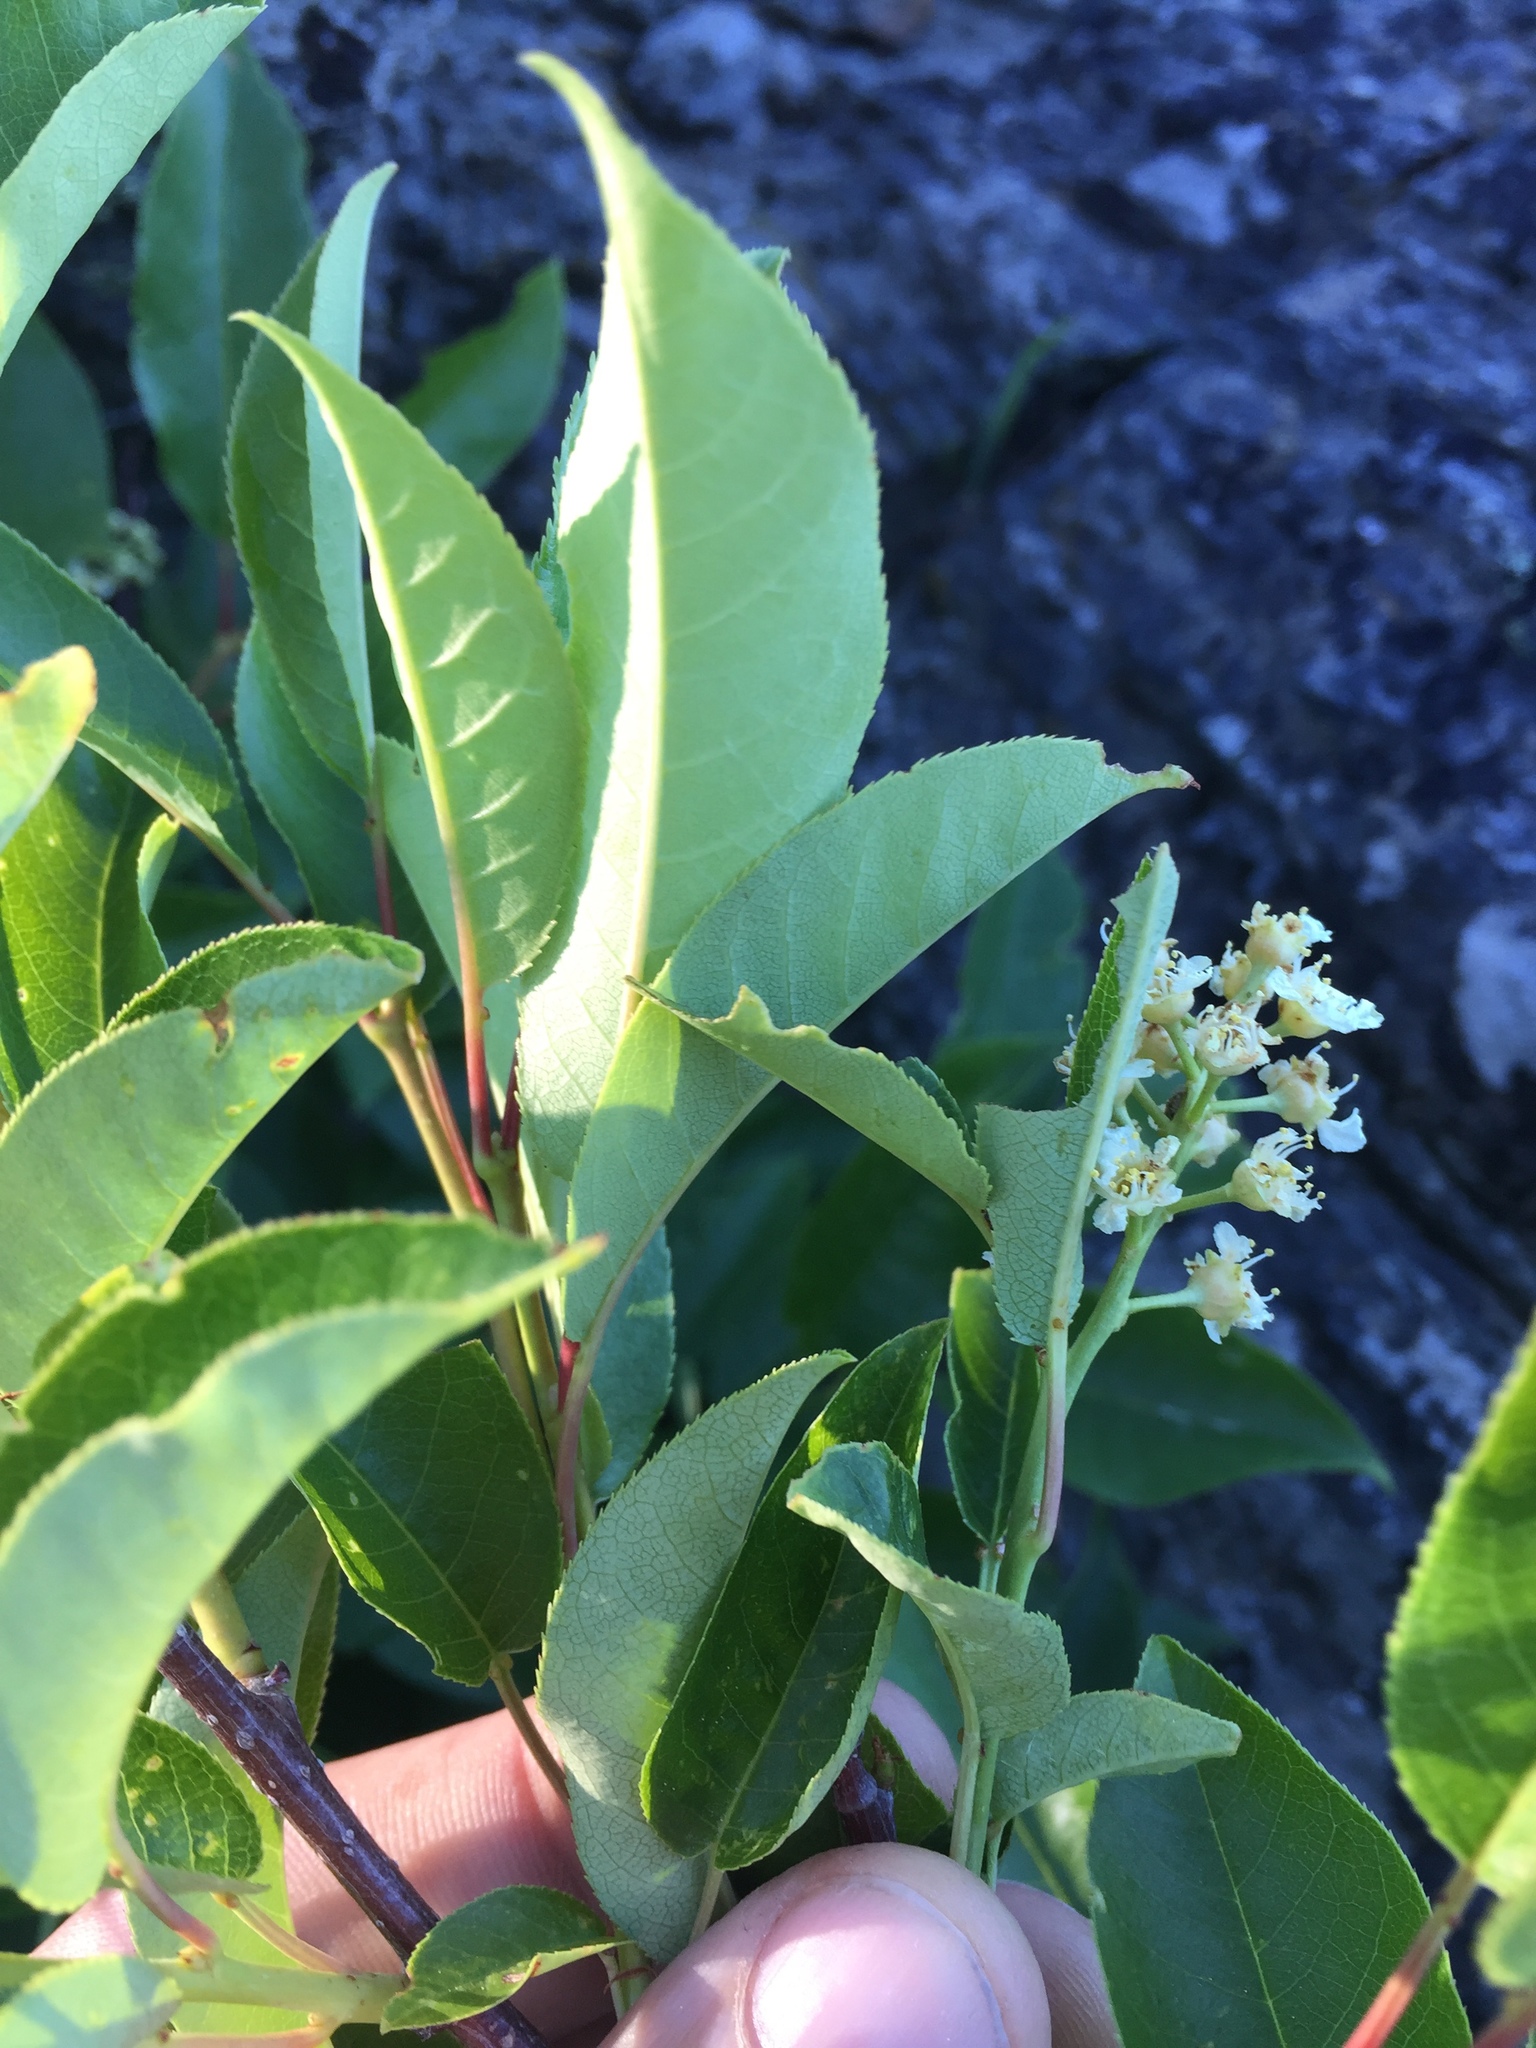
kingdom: Plantae
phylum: Tracheophyta
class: Magnoliopsida
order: Rosales
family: Rosaceae
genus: Prunus
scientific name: Prunus virginiana
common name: Chokecherry
